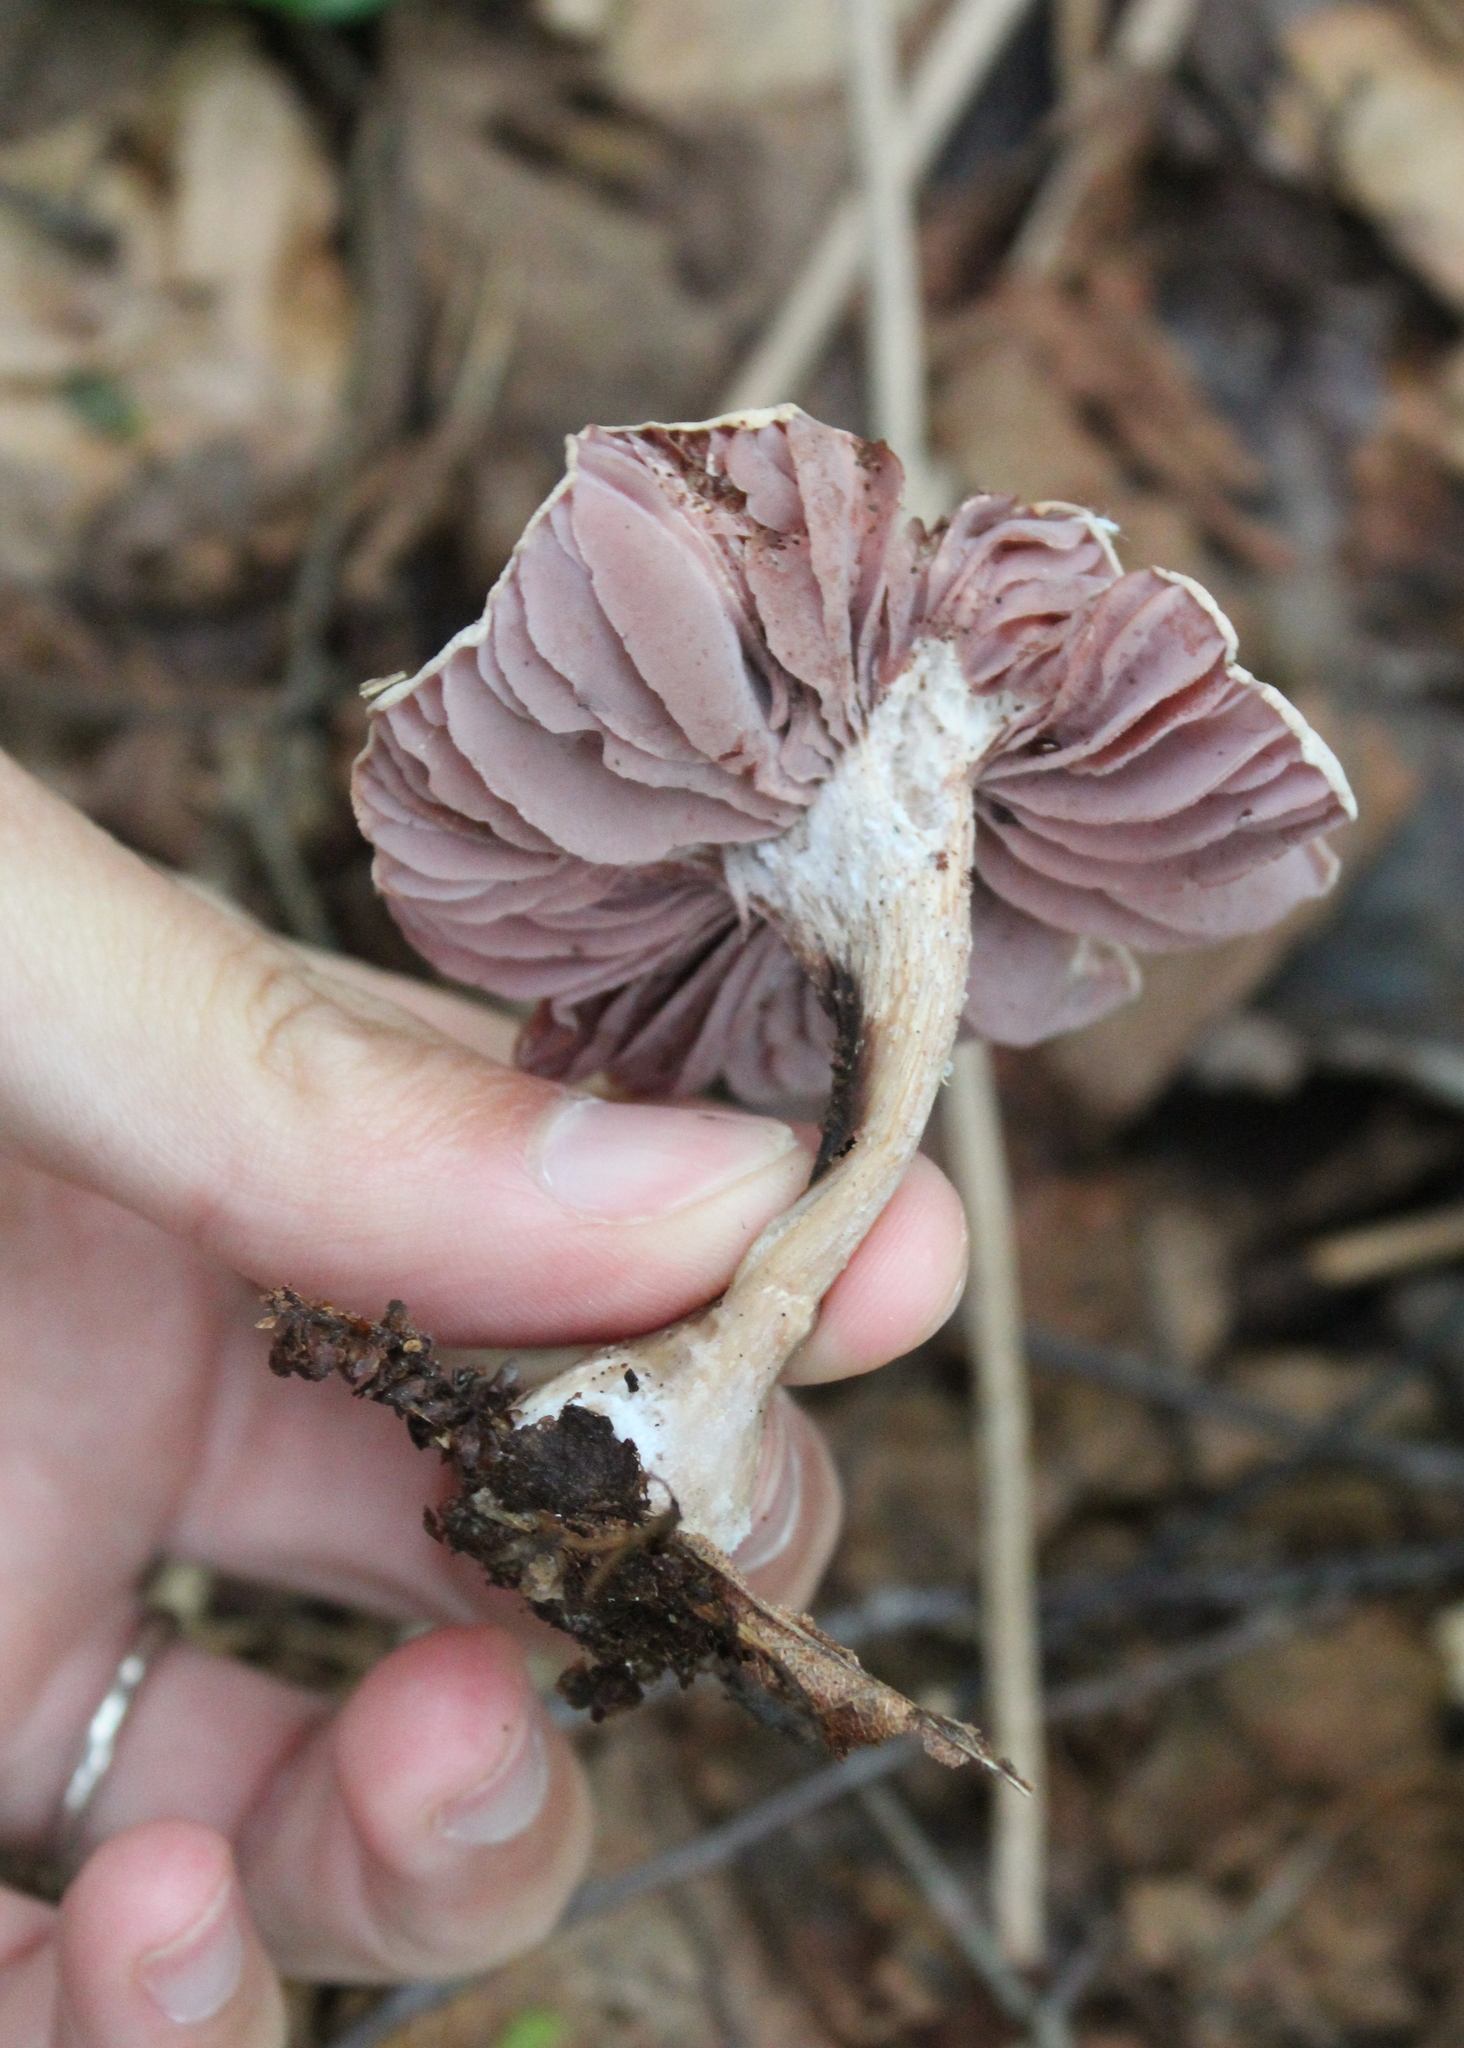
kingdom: Fungi
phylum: Basidiomycota
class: Agaricomycetes
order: Agaricales
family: Hydnangiaceae
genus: Laccaria
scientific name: Laccaria ochropurpurea
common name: Purple laccaria
